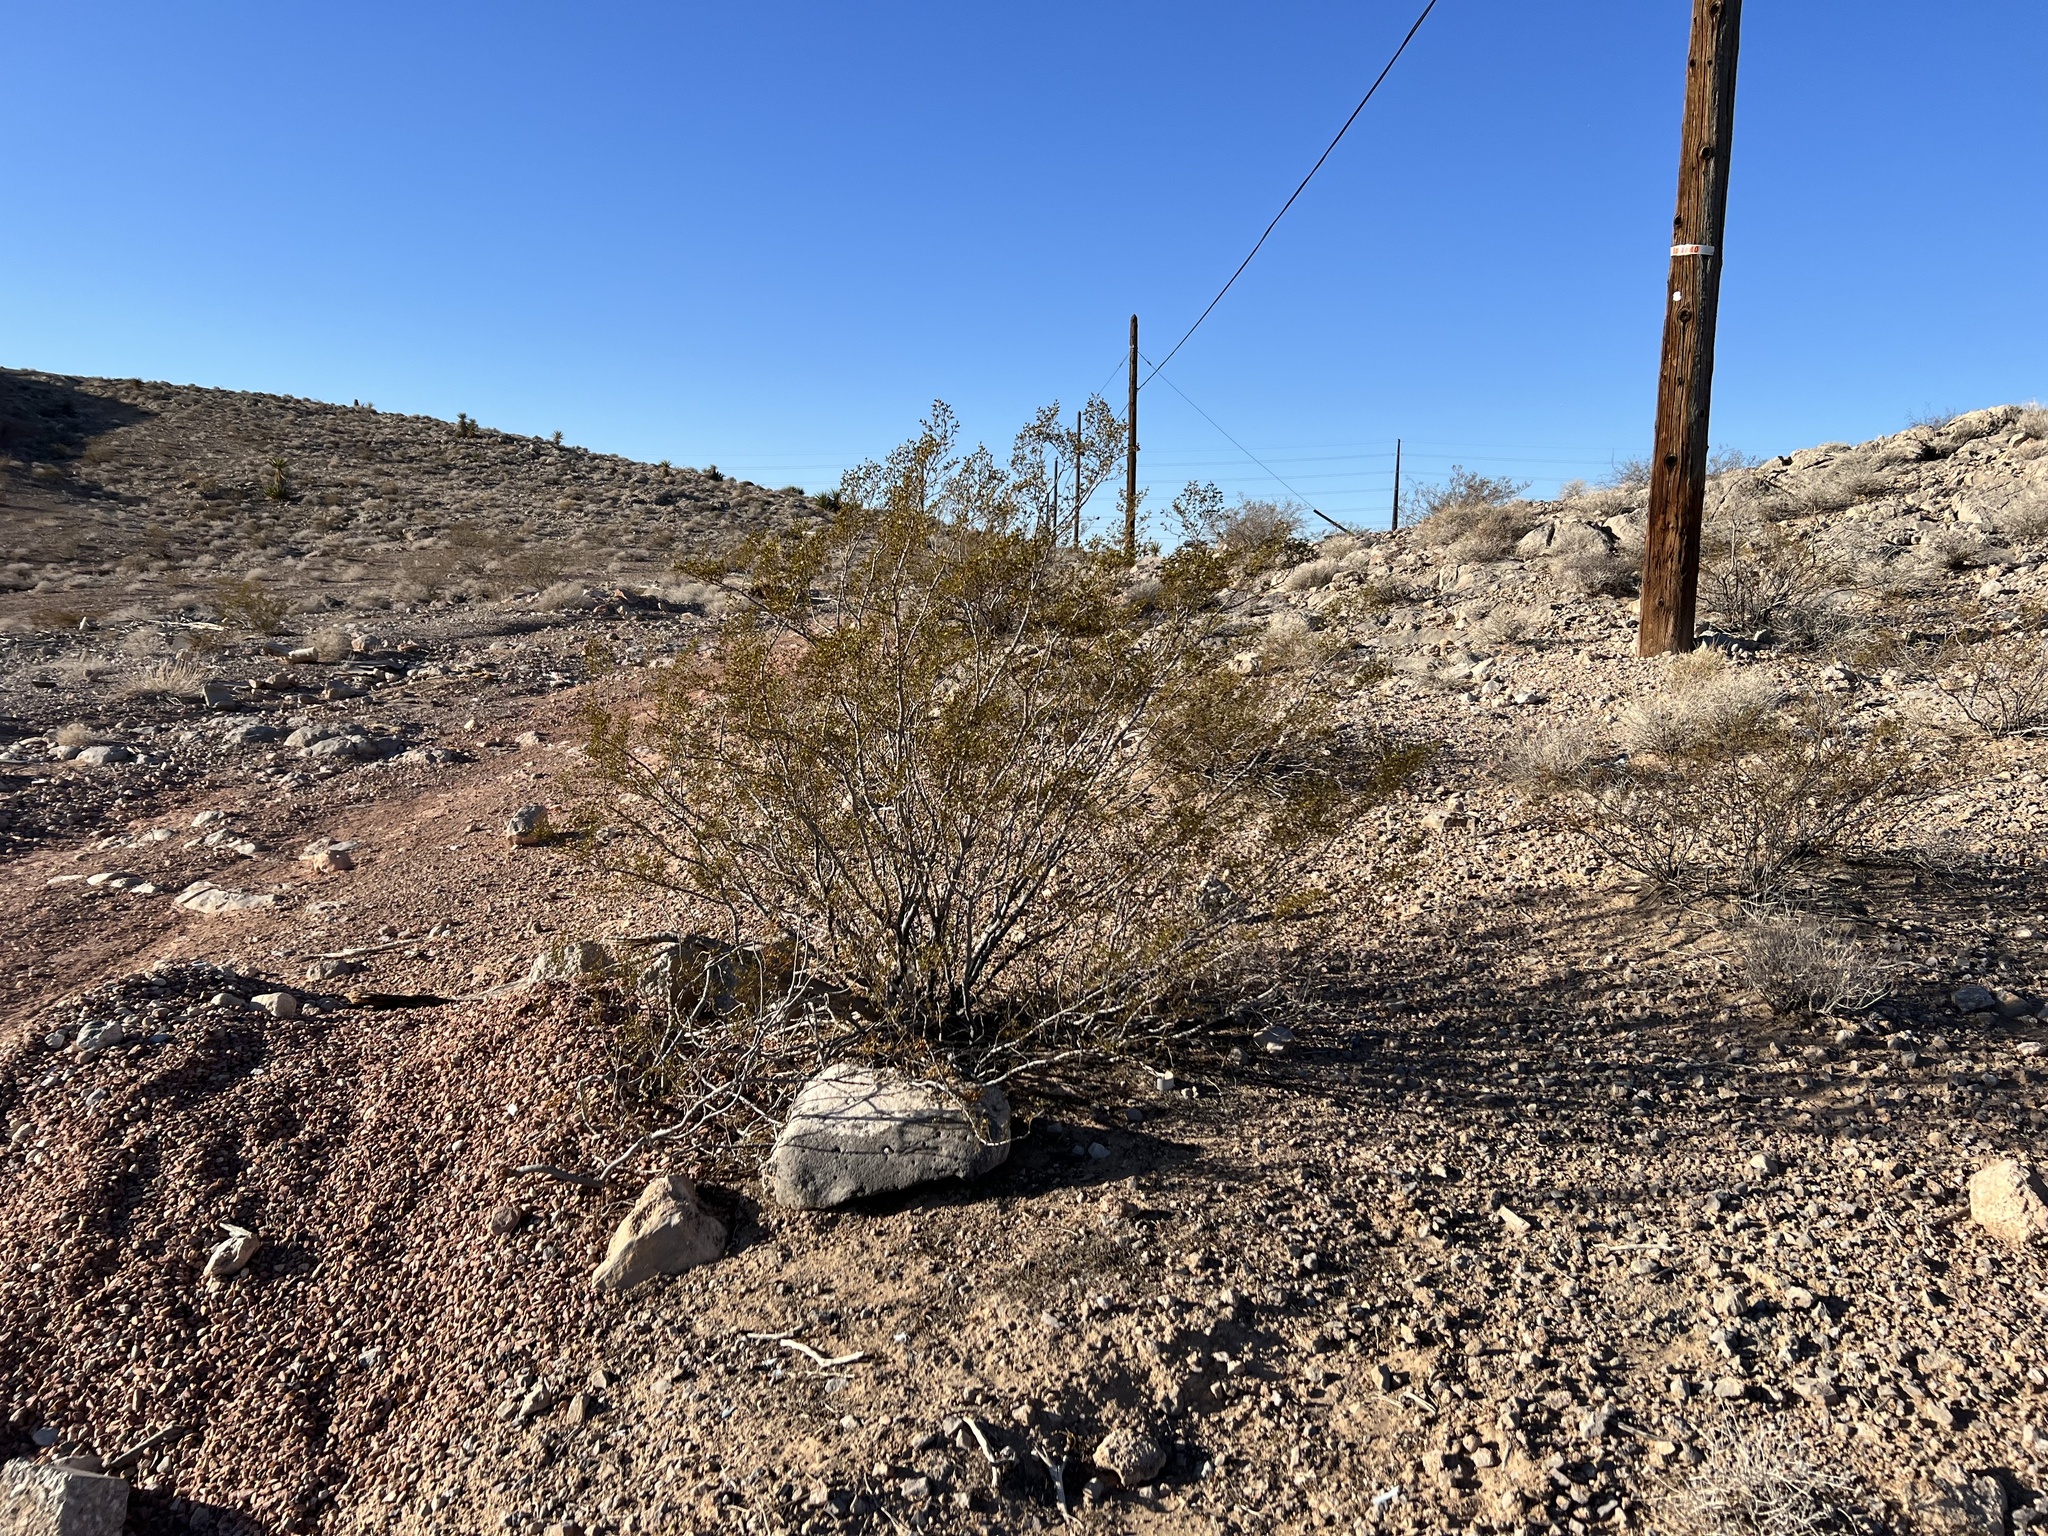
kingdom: Plantae
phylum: Tracheophyta
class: Magnoliopsida
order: Zygophyllales
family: Zygophyllaceae
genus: Larrea
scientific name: Larrea tridentata
